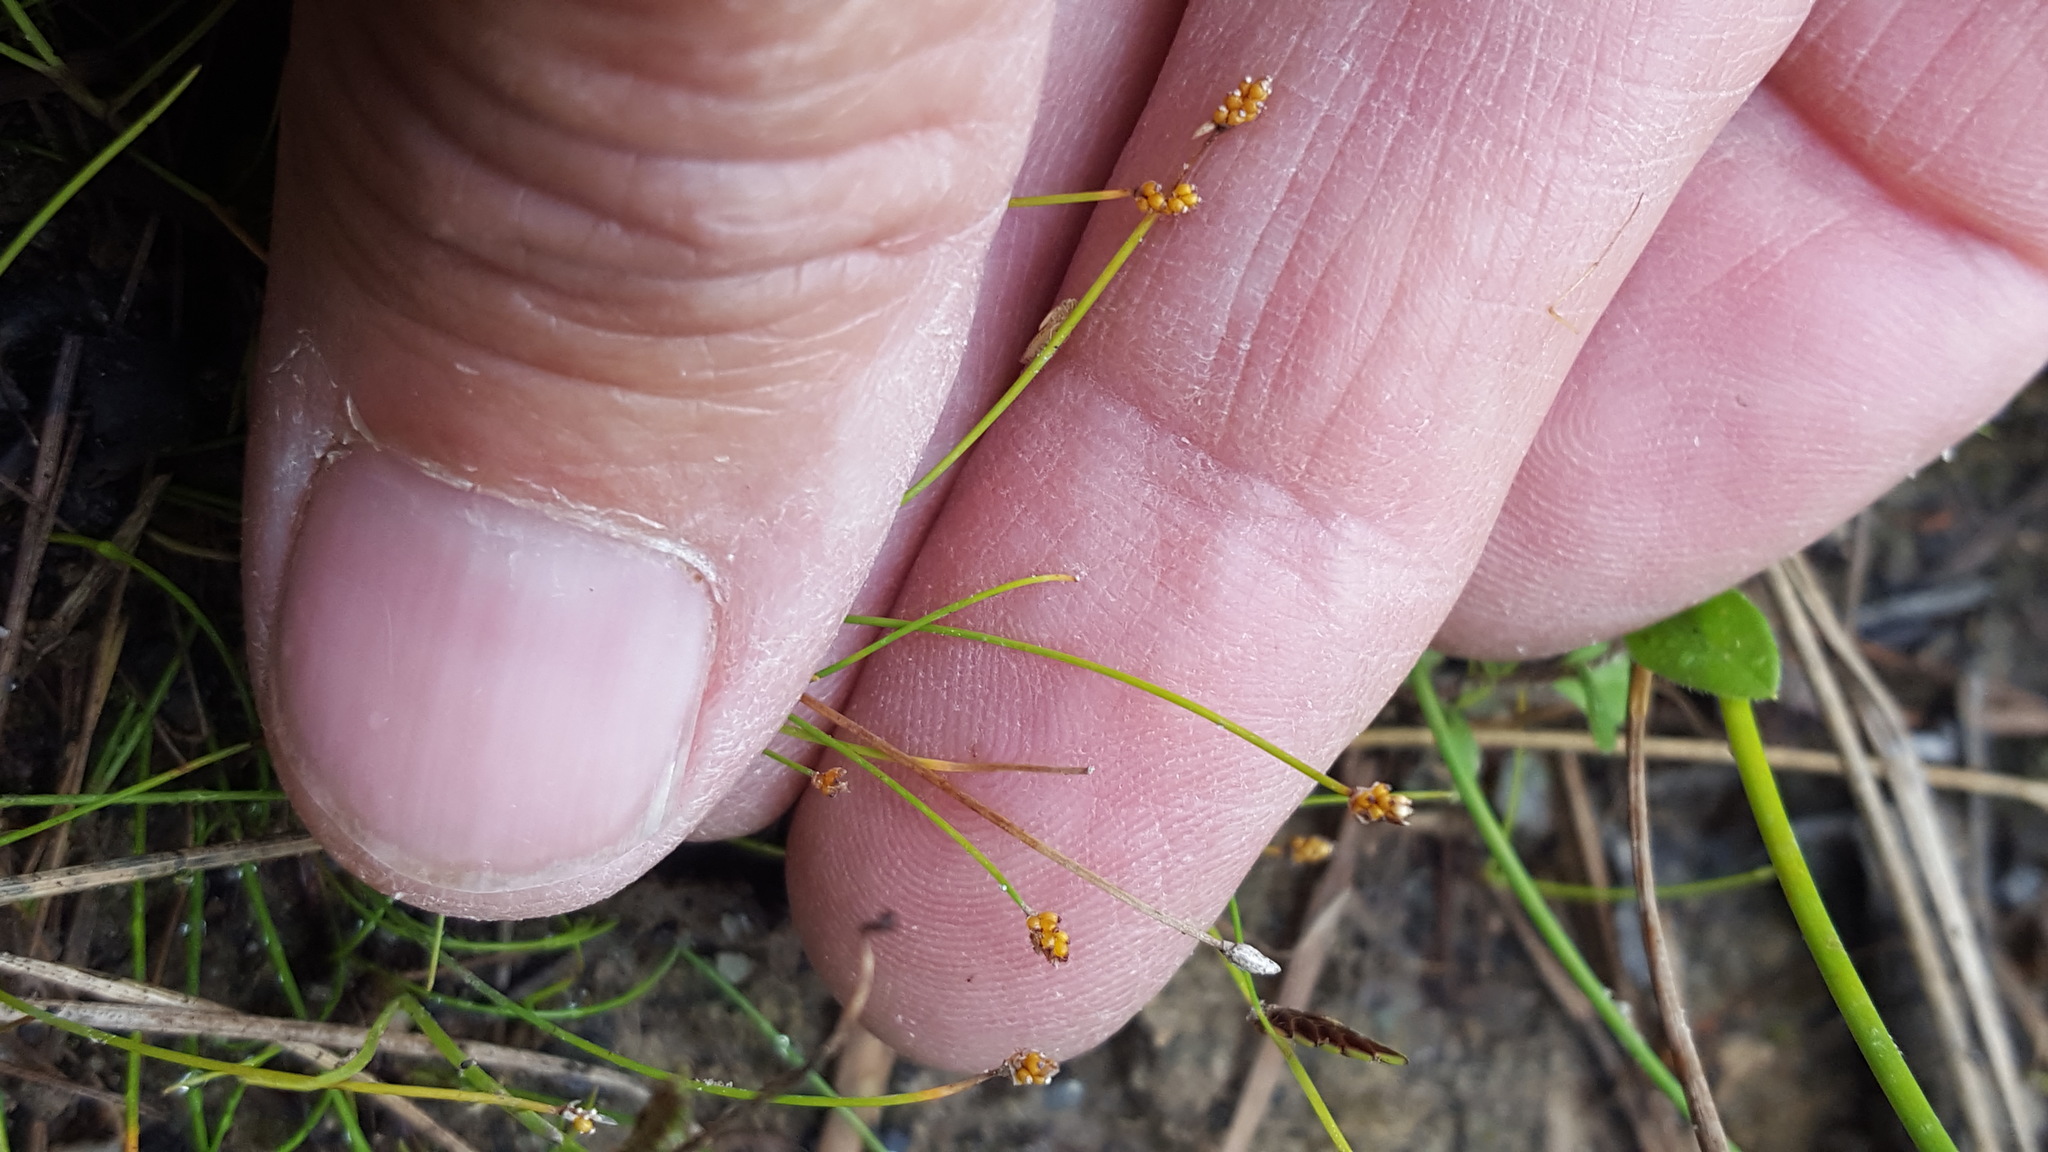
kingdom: Plantae
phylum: Tracheophyta
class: Liliopsida
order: Poales
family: Cyperaceae
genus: Eleocharis
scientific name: Eleocharis nitida
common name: Neat spikerush
